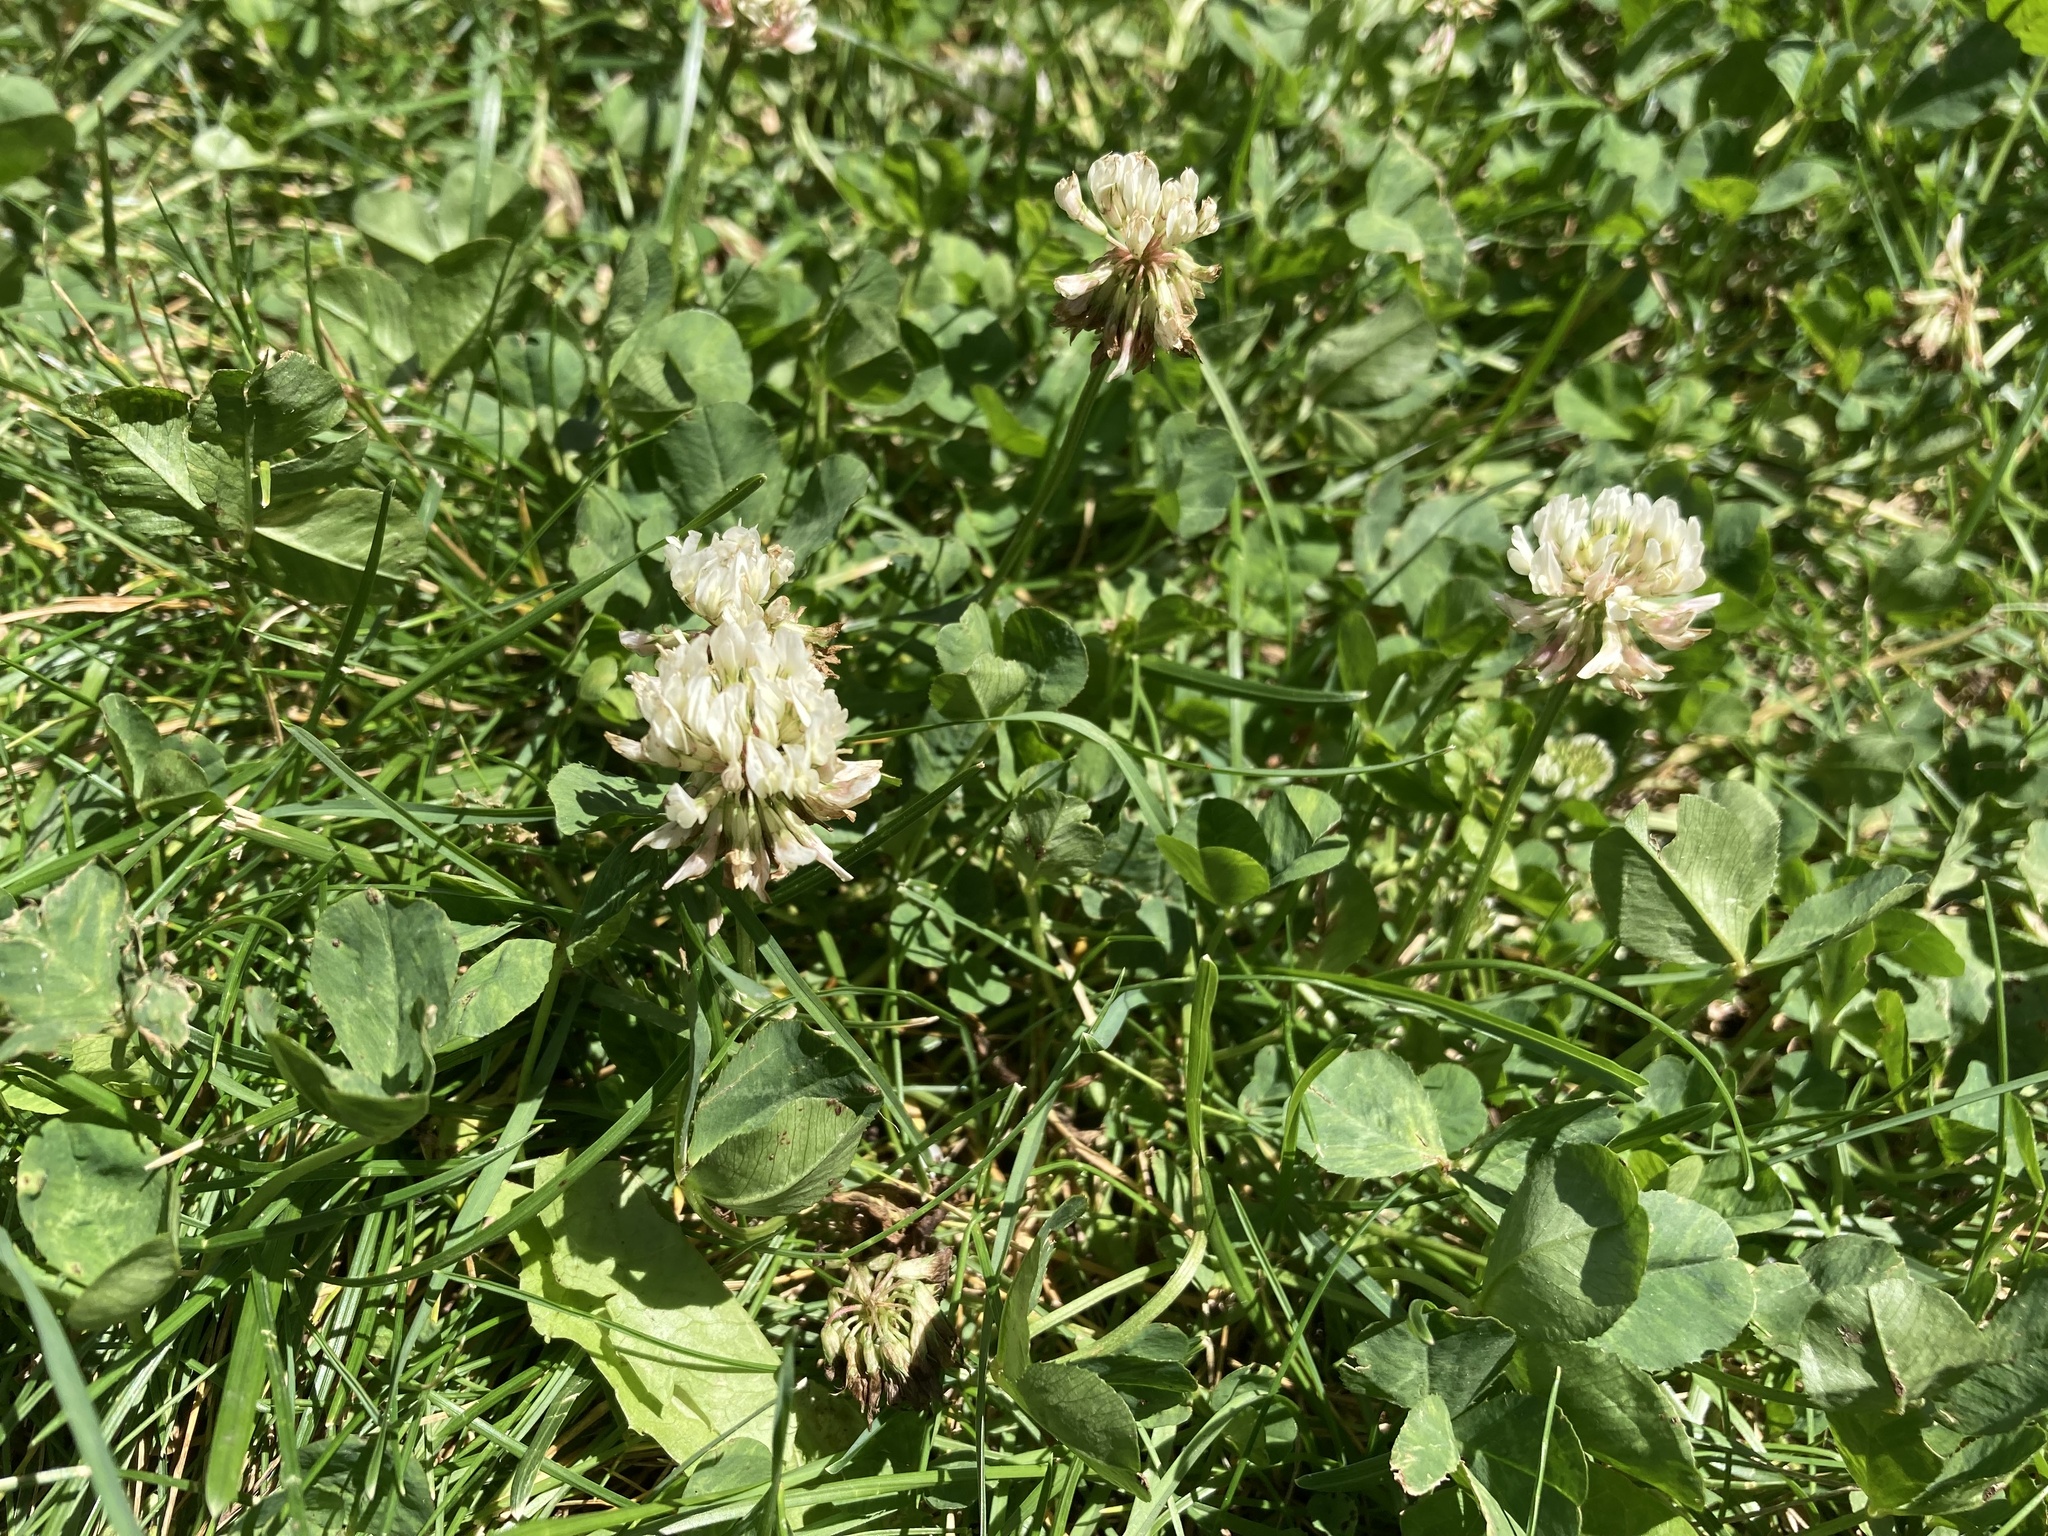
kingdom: Plantae
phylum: Tracheophyta
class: Magnoliopsida
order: Fabales
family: Fabaceae
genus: Trifolium
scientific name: Trifolium repens
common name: White clover
